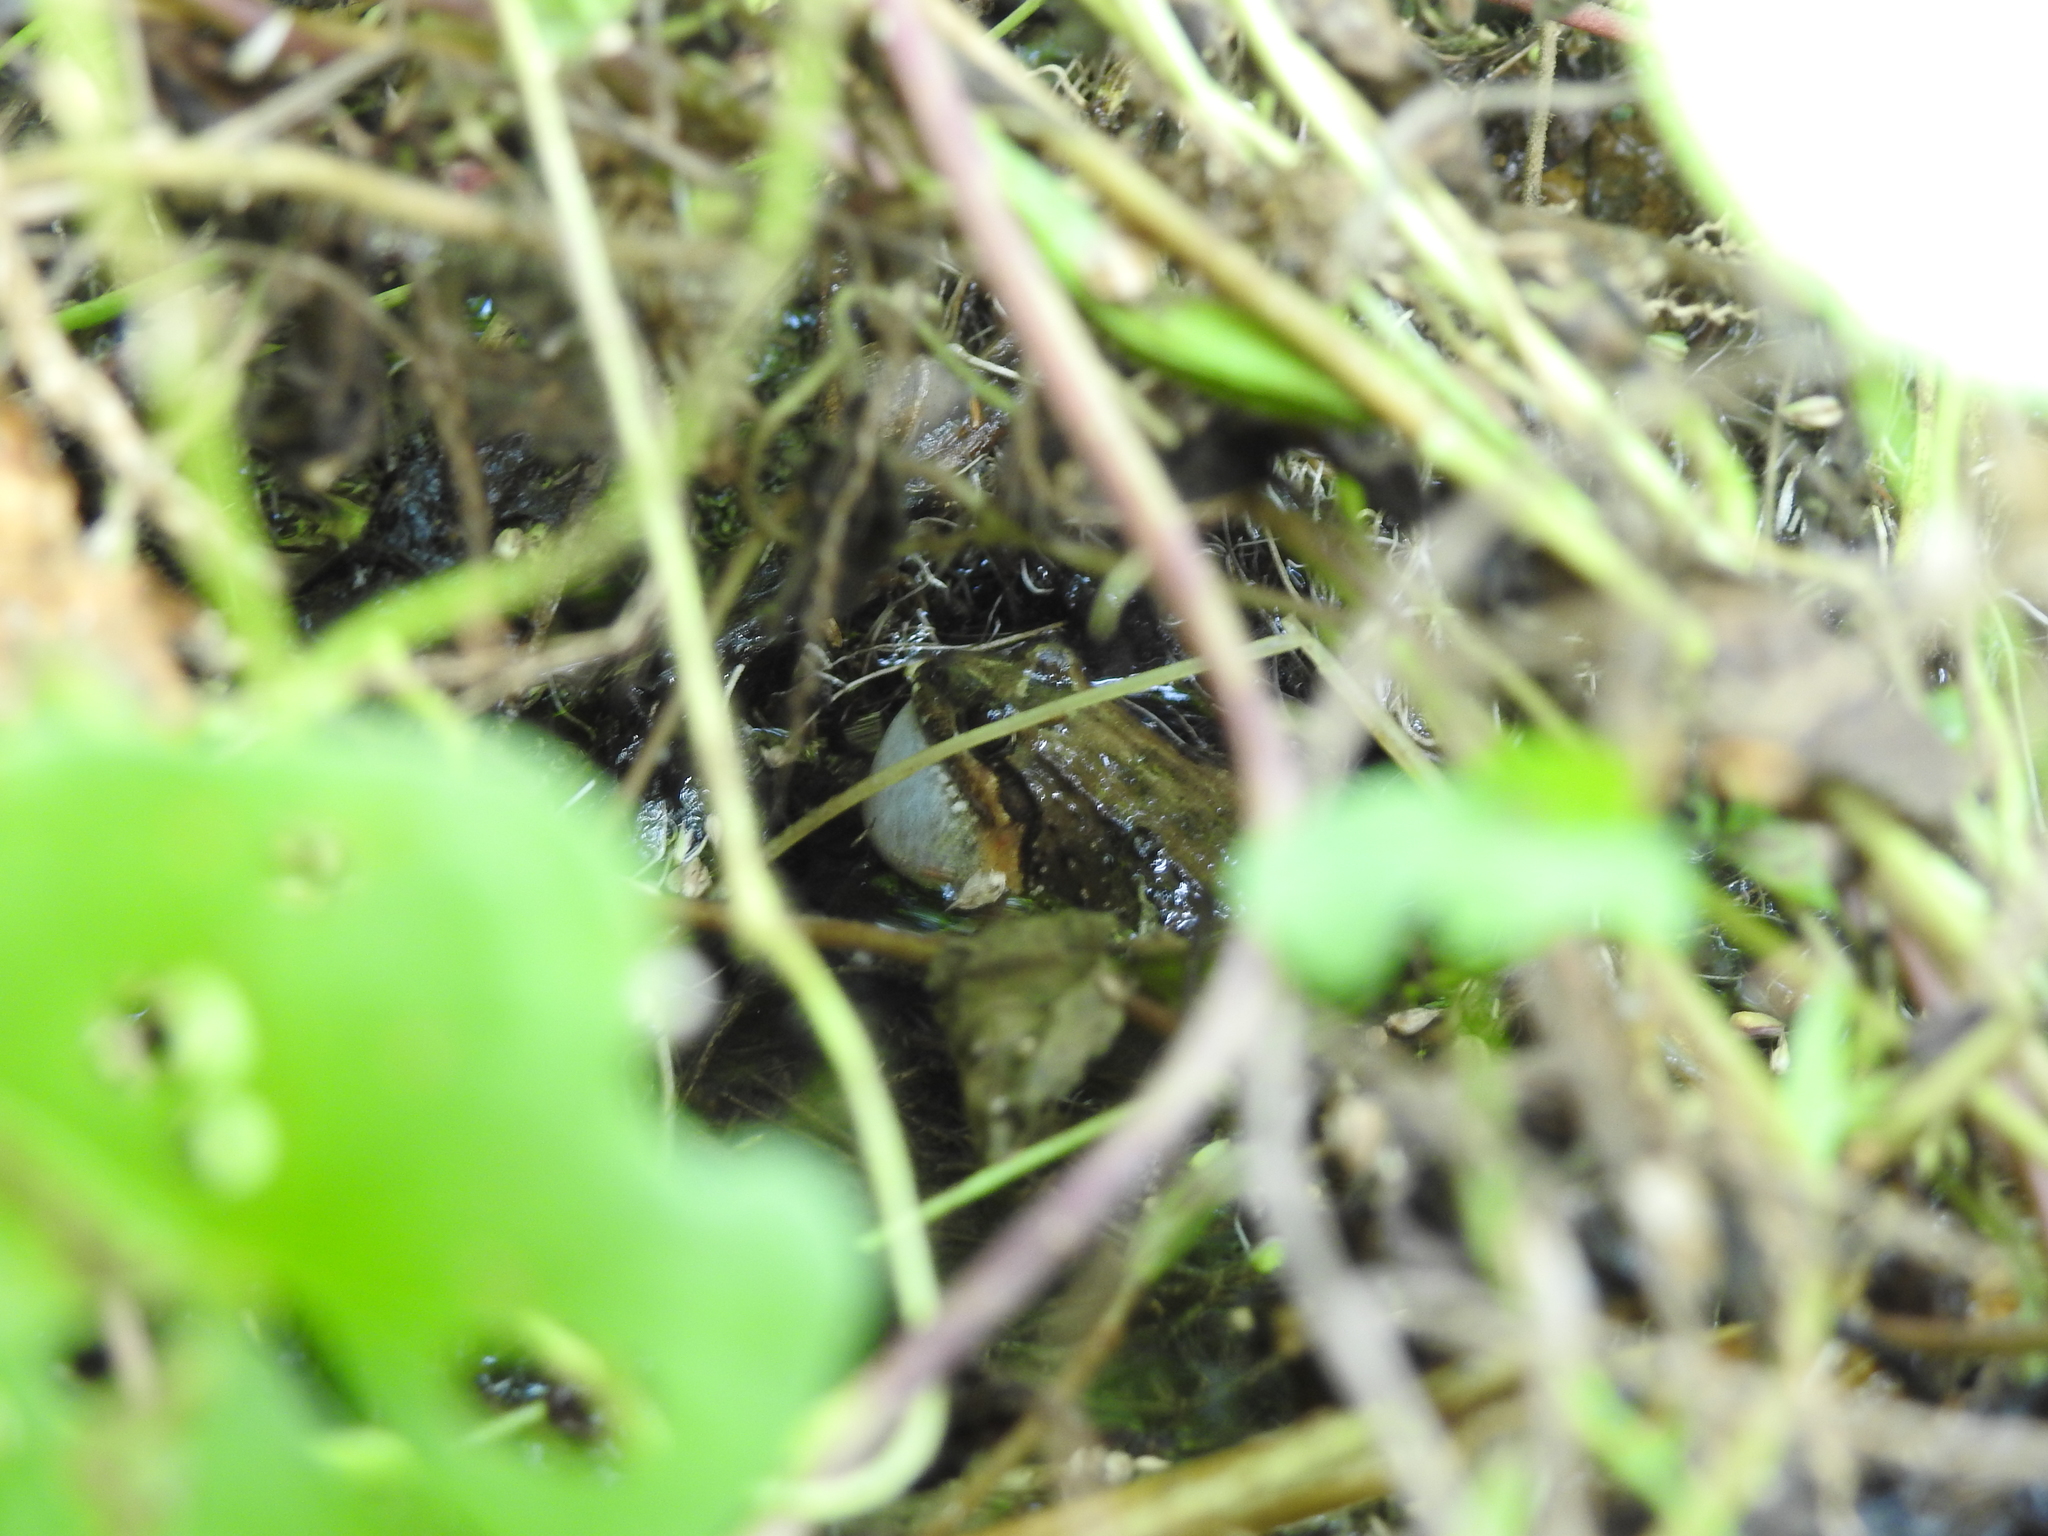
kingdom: Animalia
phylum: Chordata
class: Amphibia
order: Anura
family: Leptodactylidae
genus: Leptodactylus
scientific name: Leptodactylus melanonotus
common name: Fringe-toed foamfrog
